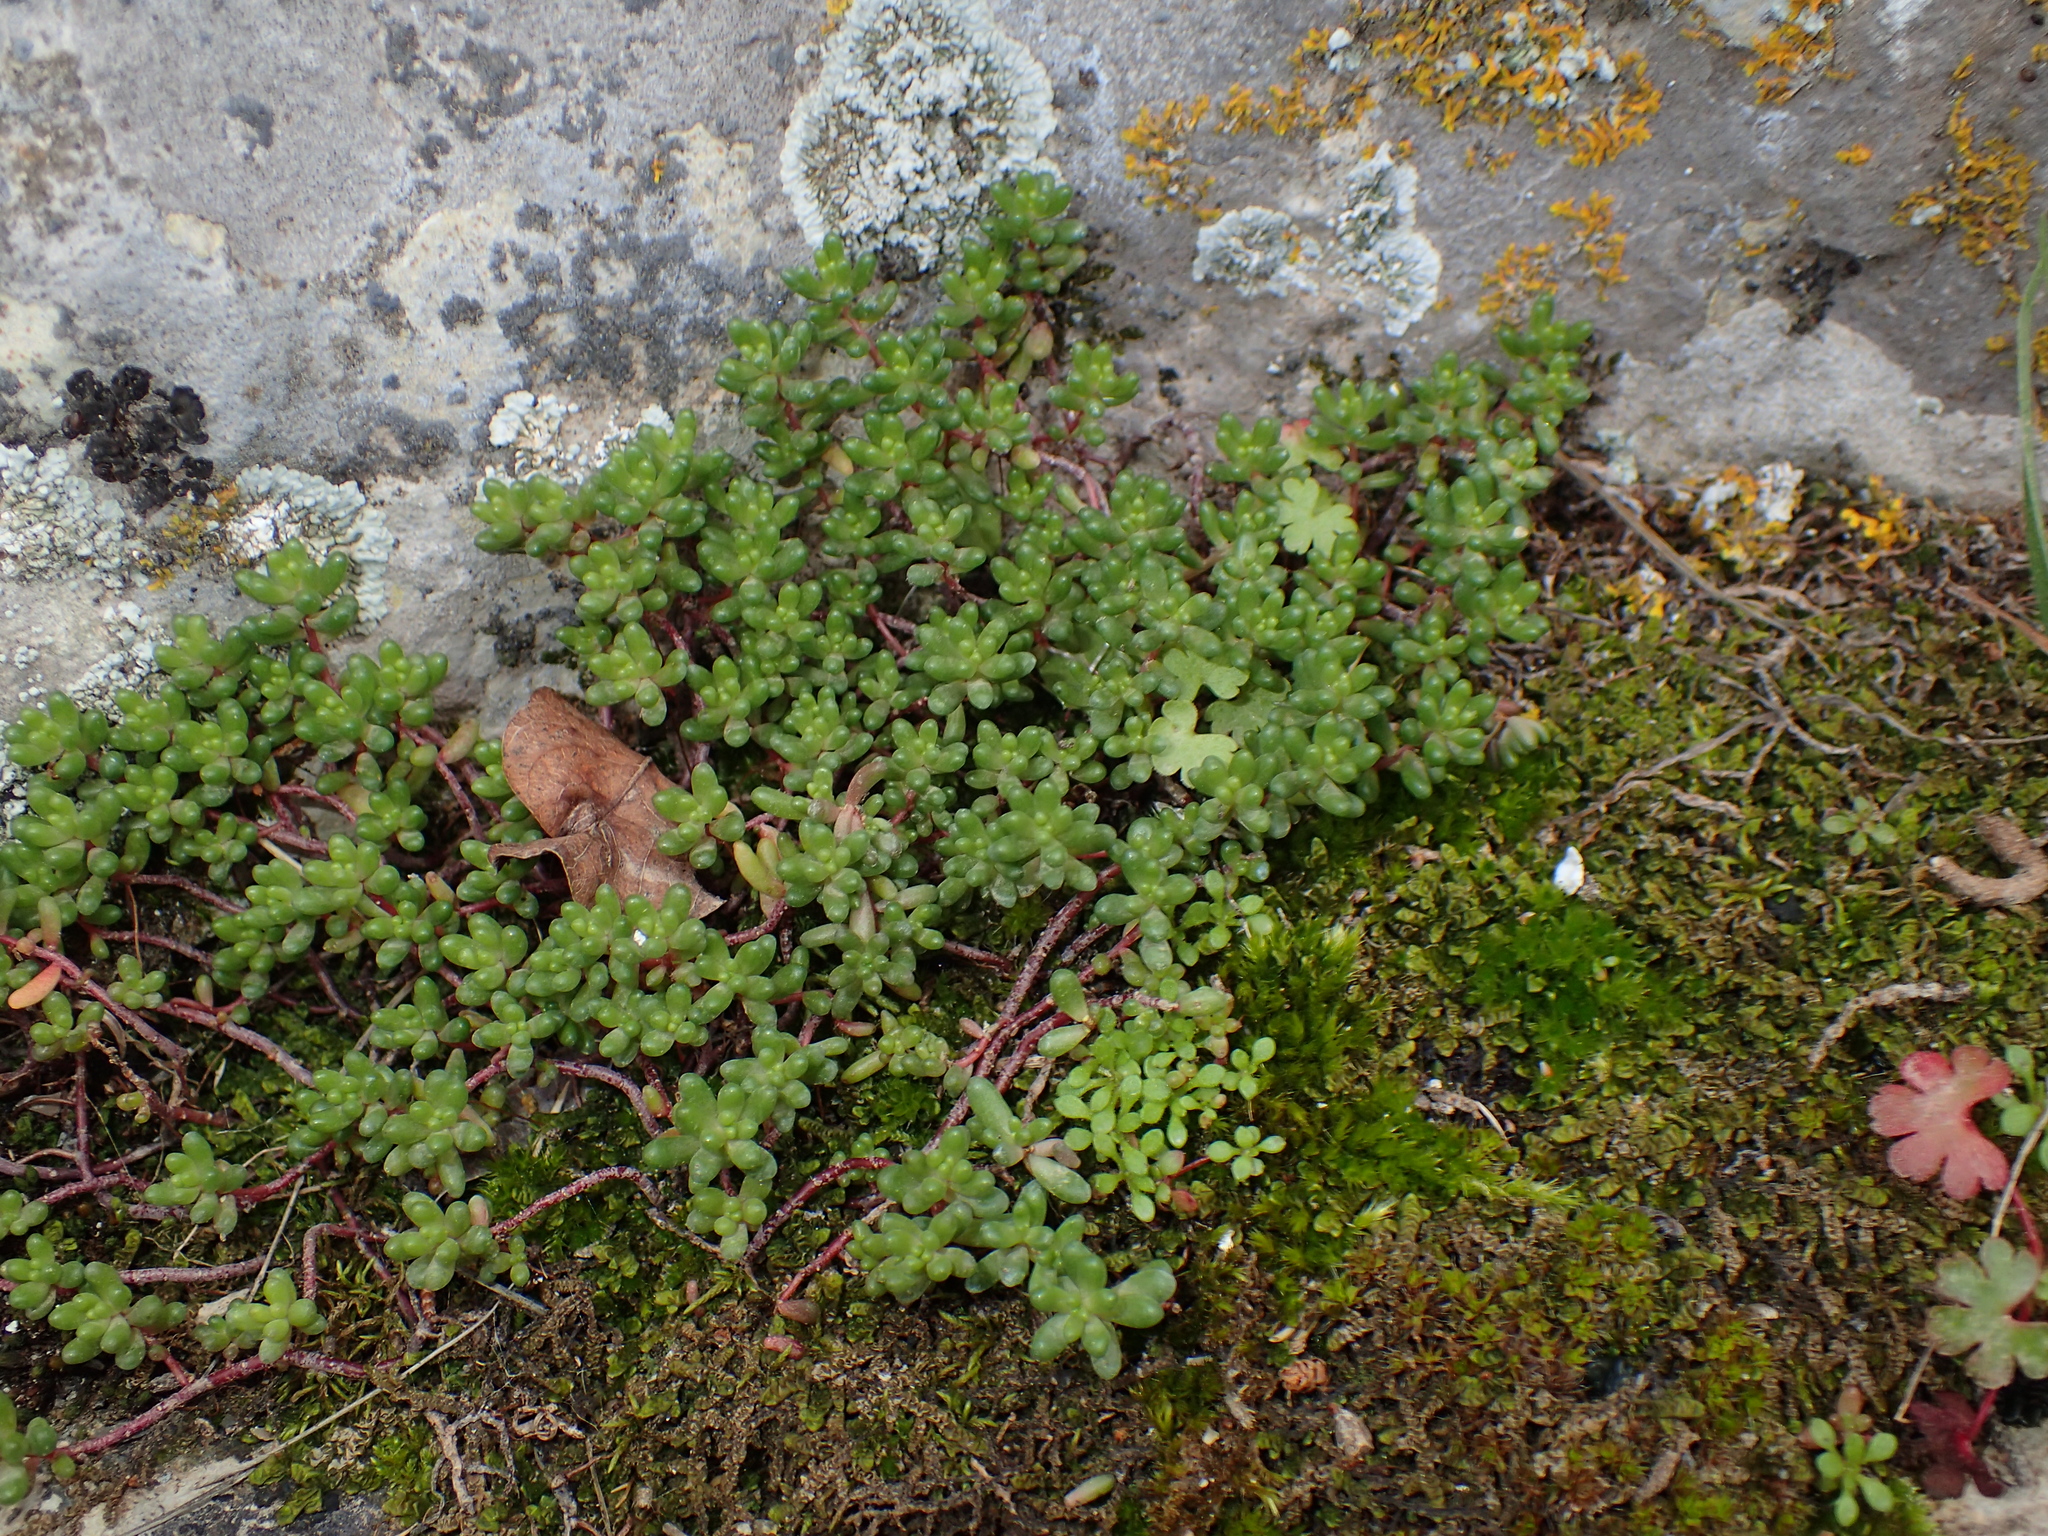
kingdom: Plantae
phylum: Tracheophyta
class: Magnoliopsida
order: Saxifragales
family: Crassulaceae
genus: Sedum
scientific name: Sedum album
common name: White stonecrop
